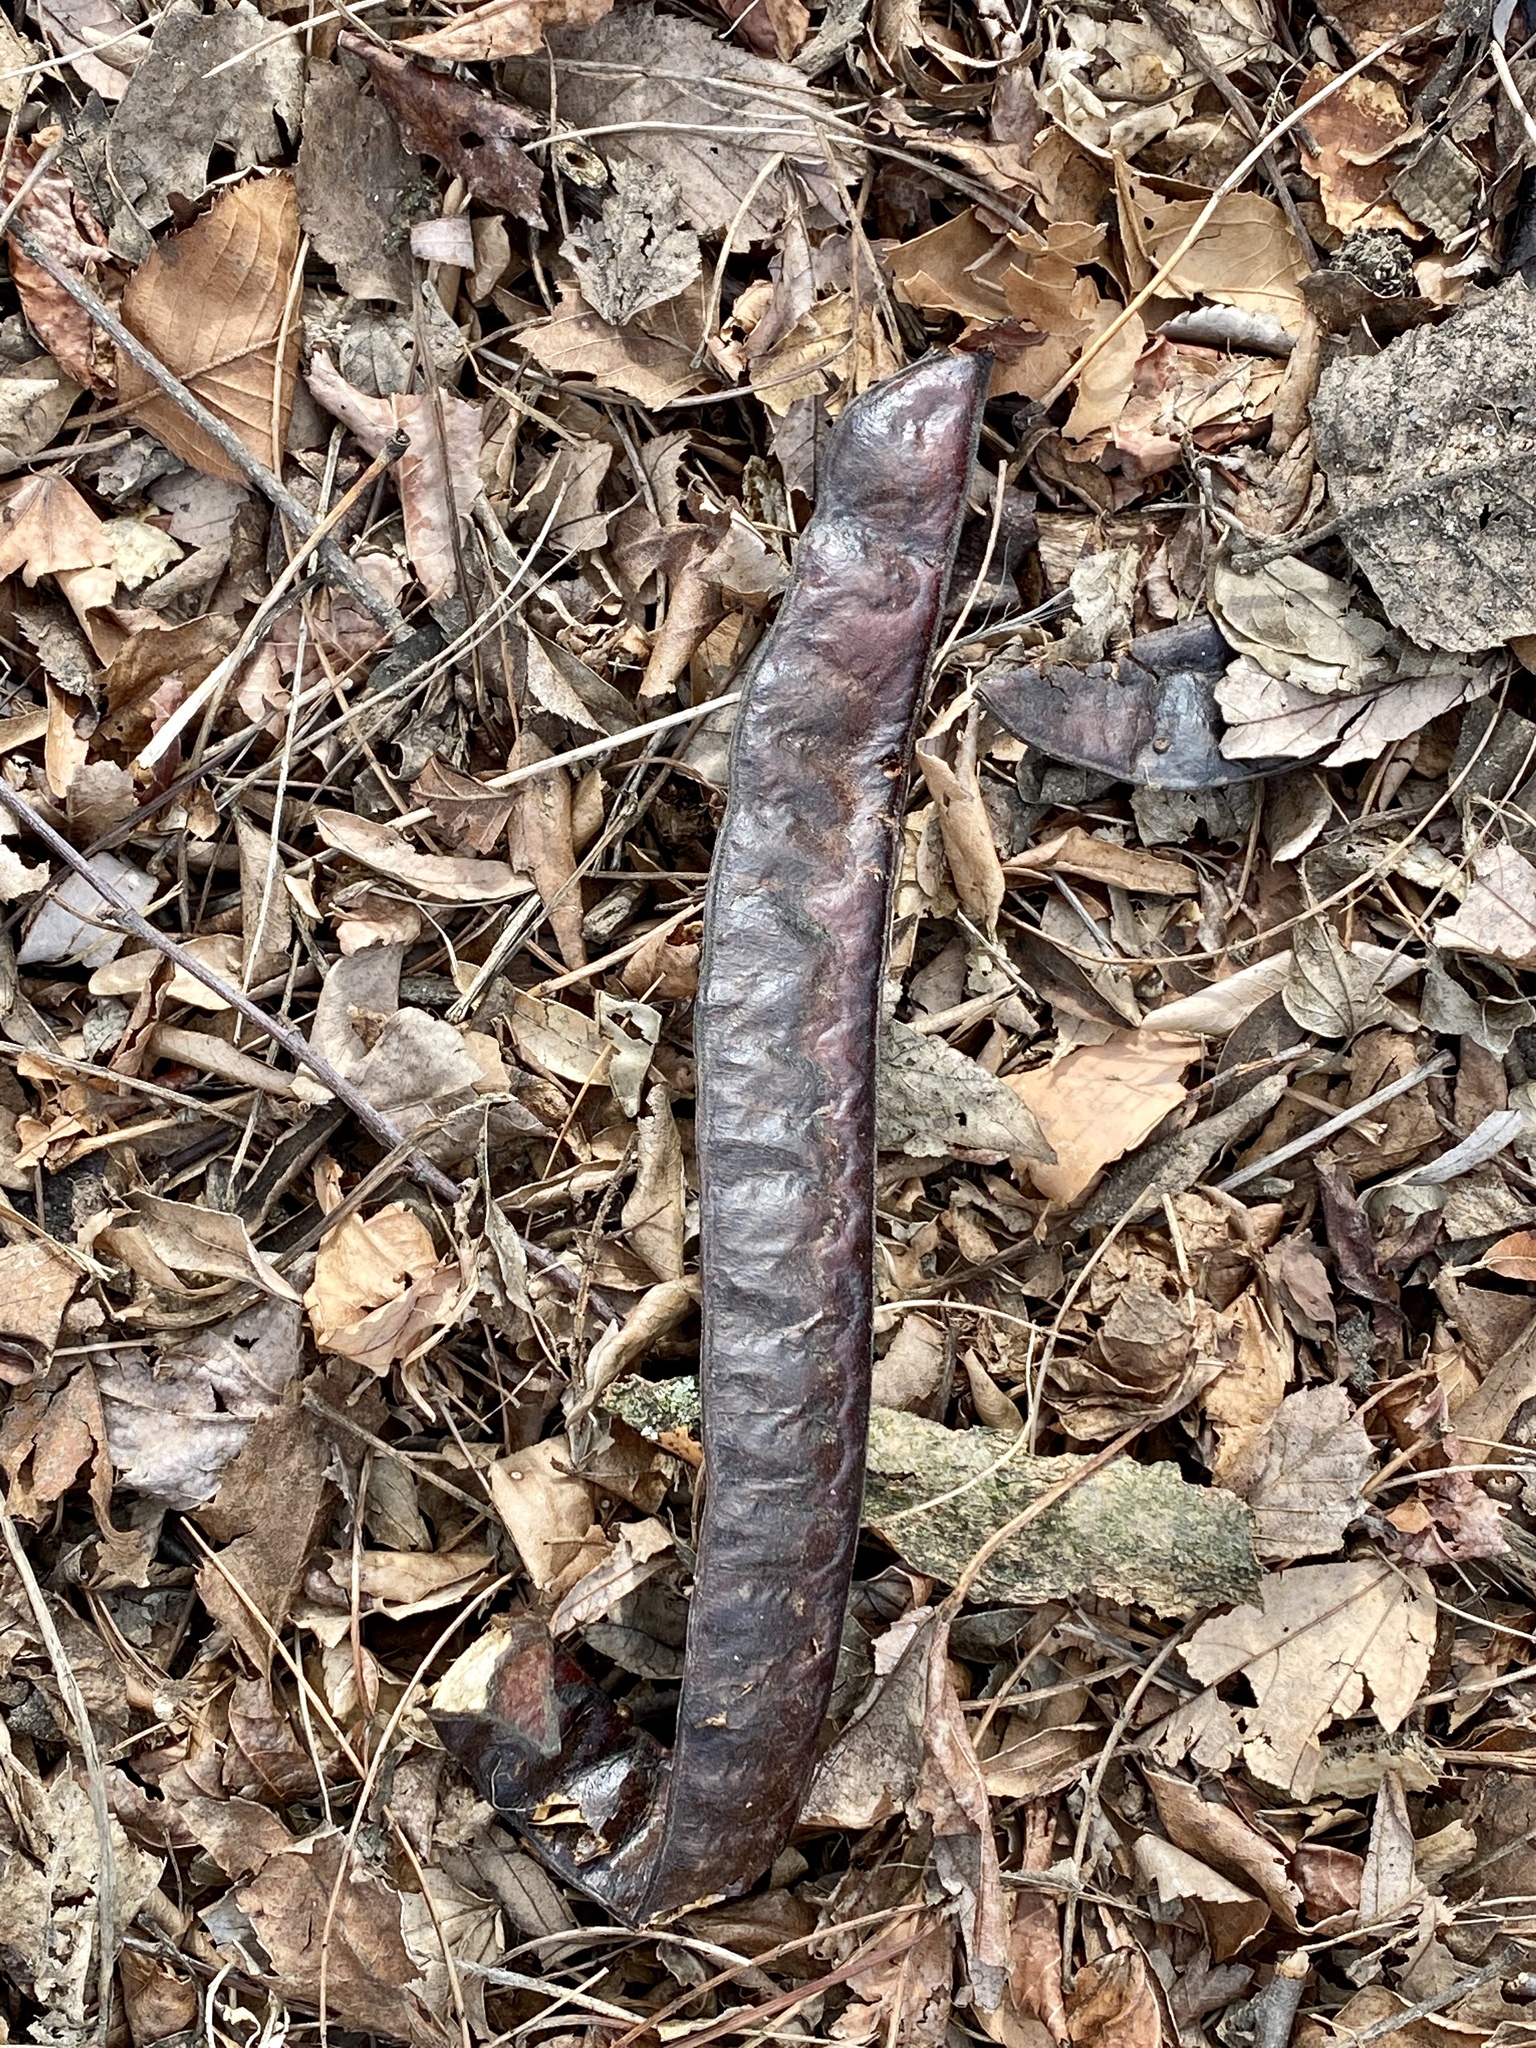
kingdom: Plantae
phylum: Tracheophyta
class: Magnoliopsida
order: Fabales
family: Fabaceae
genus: Gleditsia
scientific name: Gleditsia triacanthos
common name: Common honeylocust
